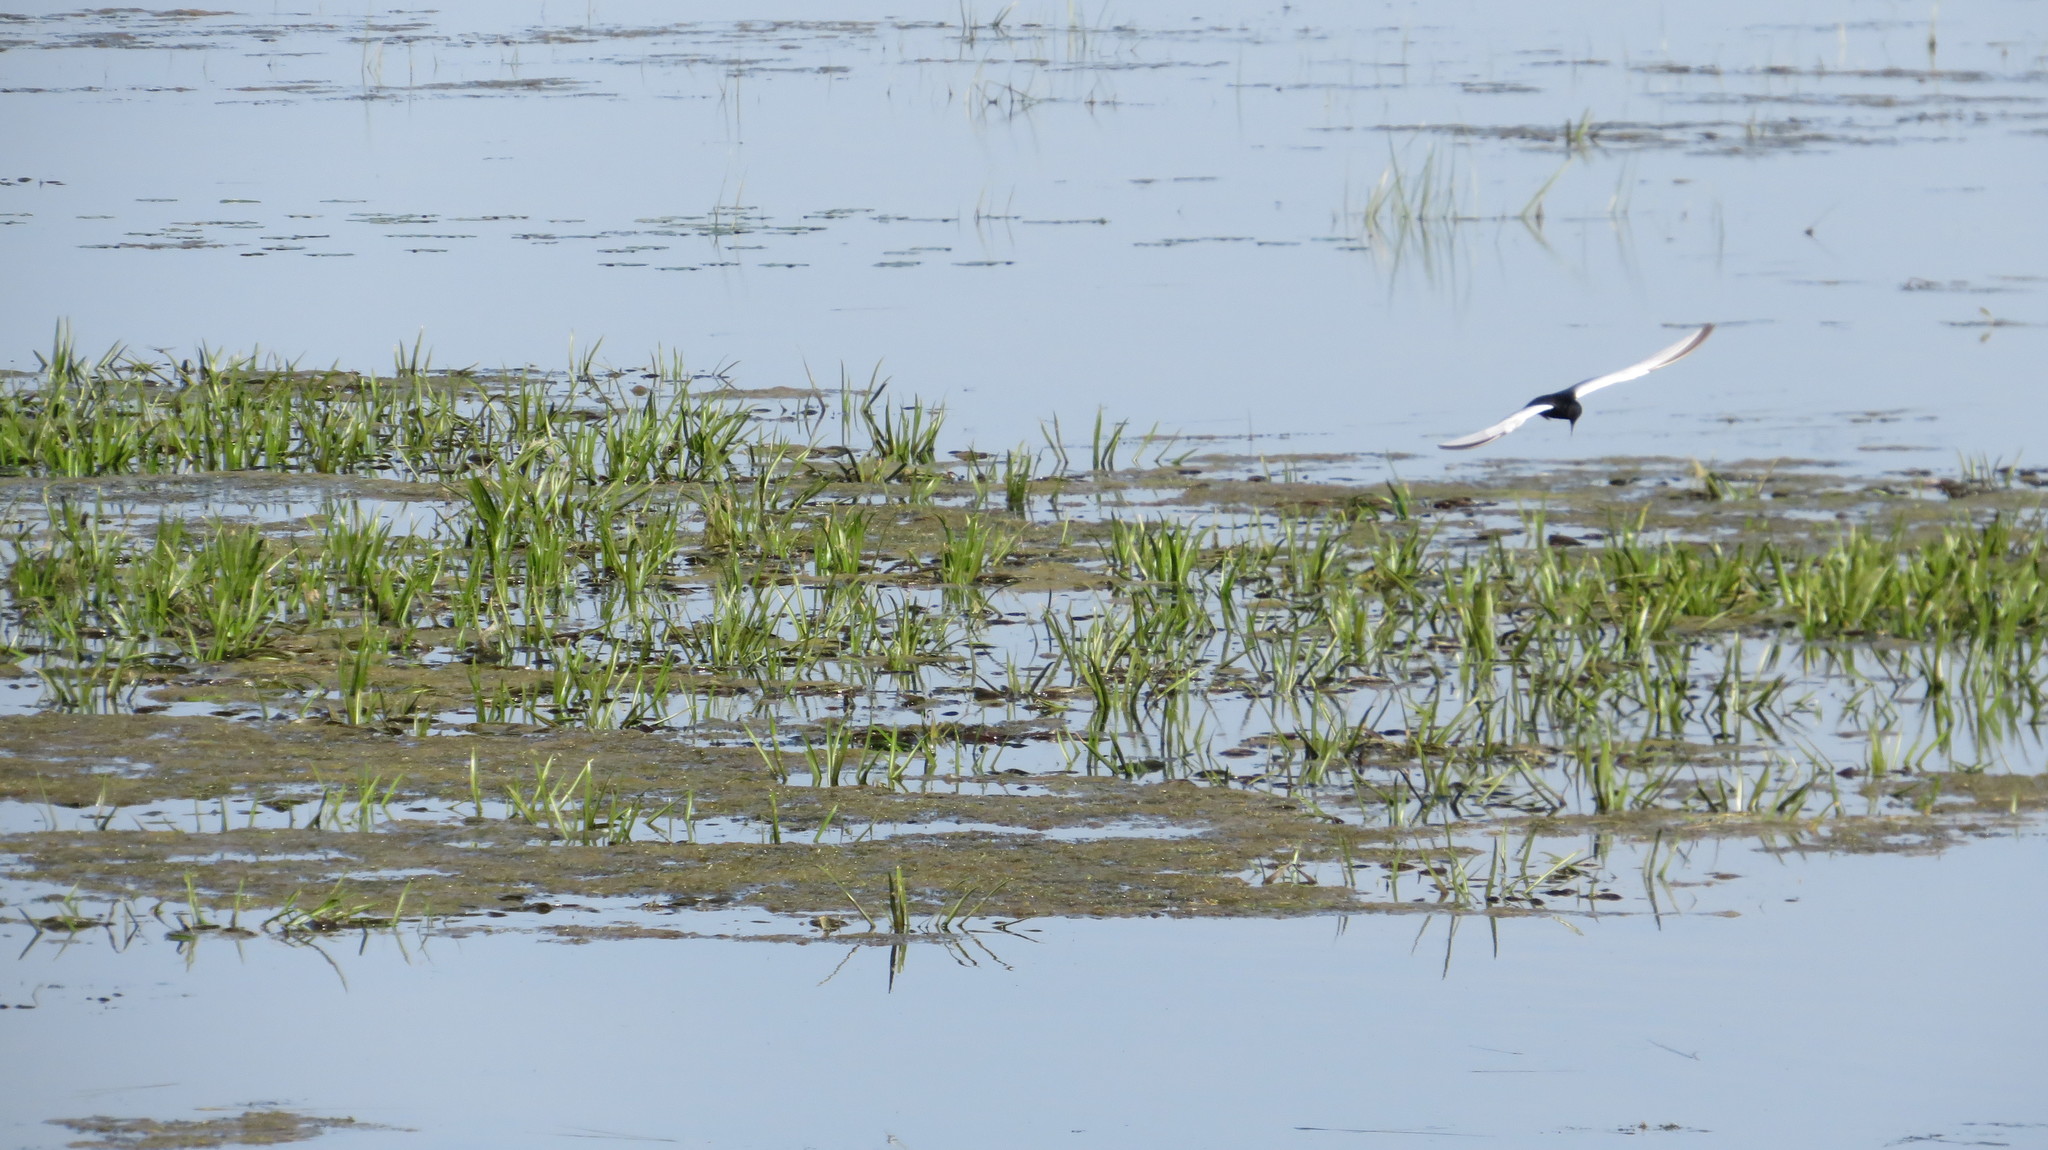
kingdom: Animalia
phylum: Chordata
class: Aves
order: Charadriiformes
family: Laridae
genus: Chlidonias
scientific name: Chlidonias leucopterus
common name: White-winged tern
